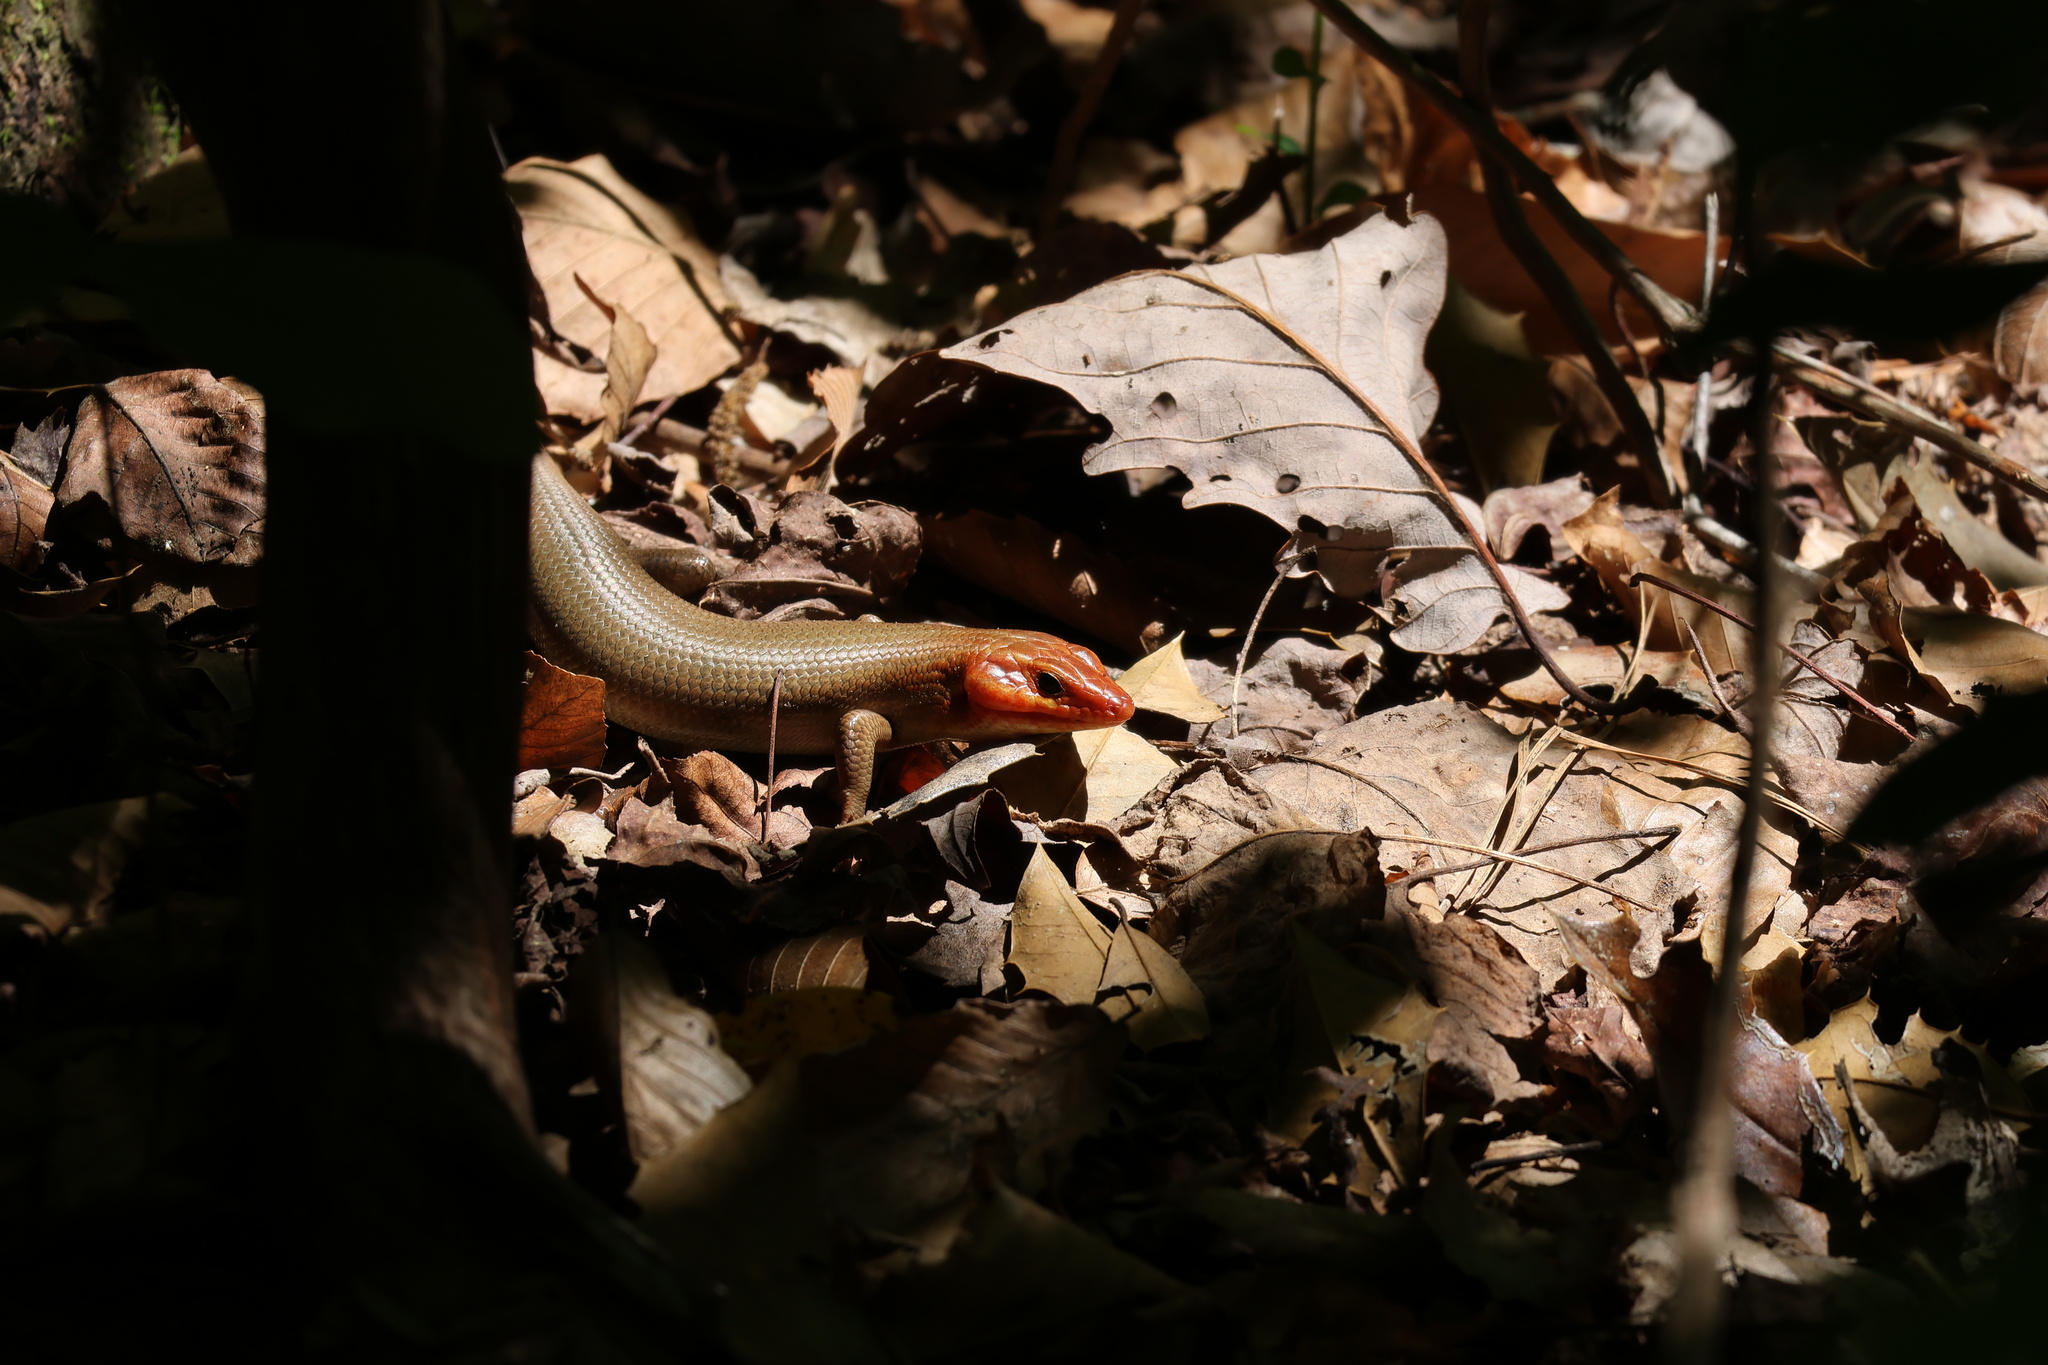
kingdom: Animalia
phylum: Chordata
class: Squamata
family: Scincidae
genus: Plestiodon
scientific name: Plestiodon laticeps
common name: Broadhead skink
